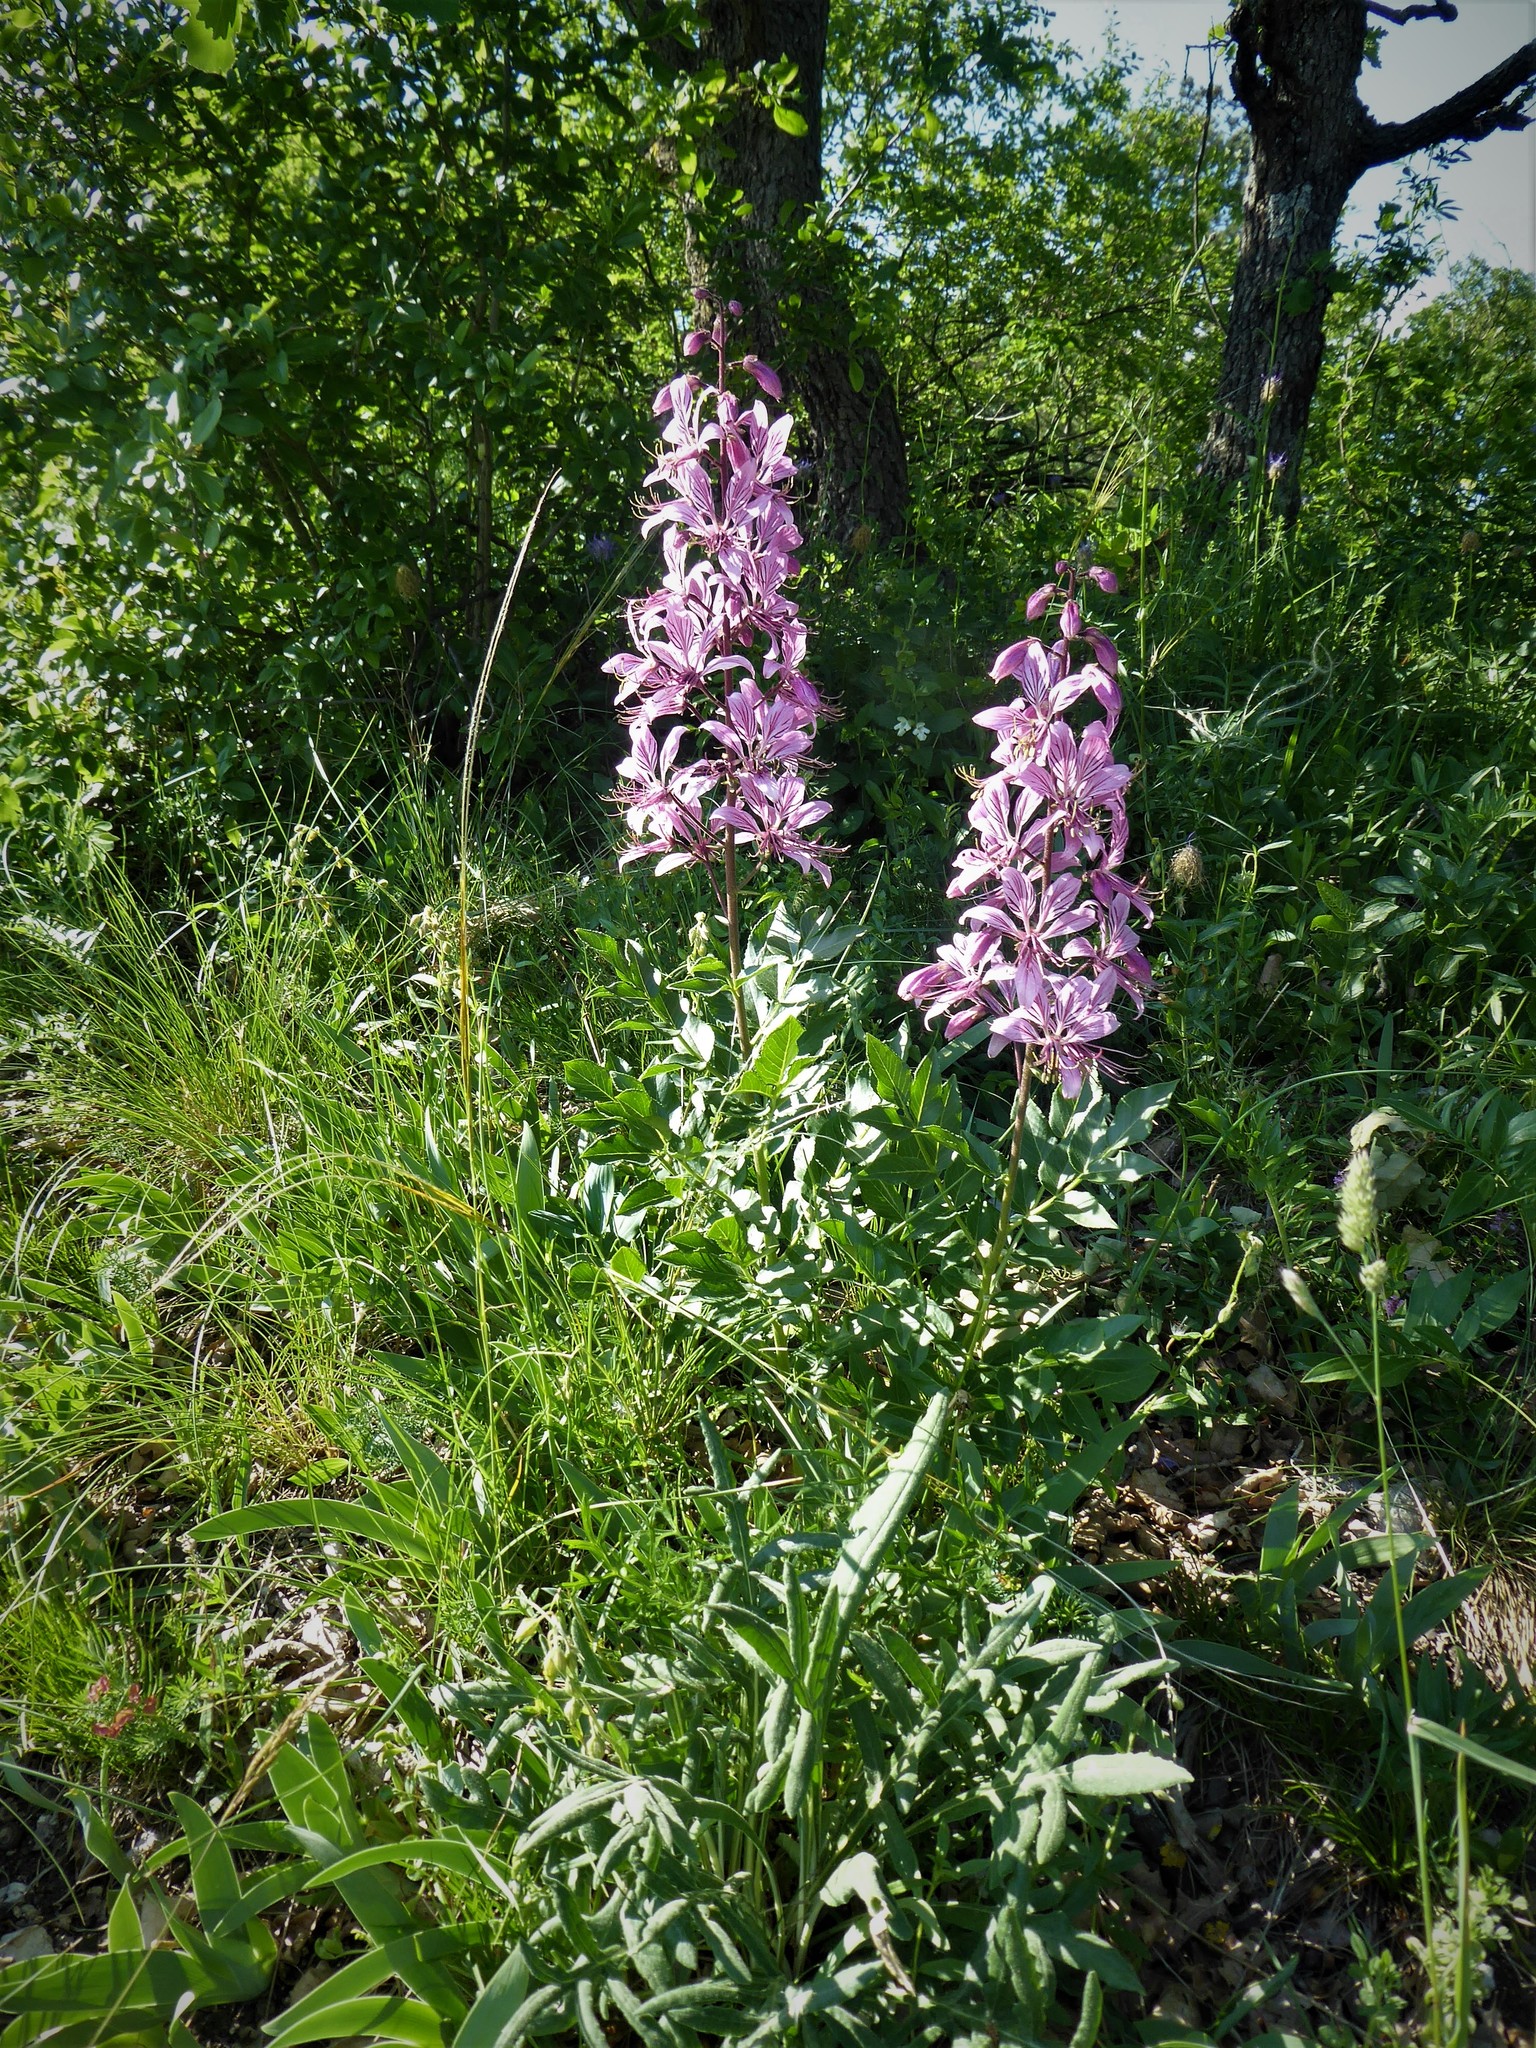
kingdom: Plantae
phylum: Tracheophyta
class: Magnoliopsida
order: Sapindales
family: Rutaceae
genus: Dictamnus
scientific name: Dictamnus albus
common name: Gasplant
